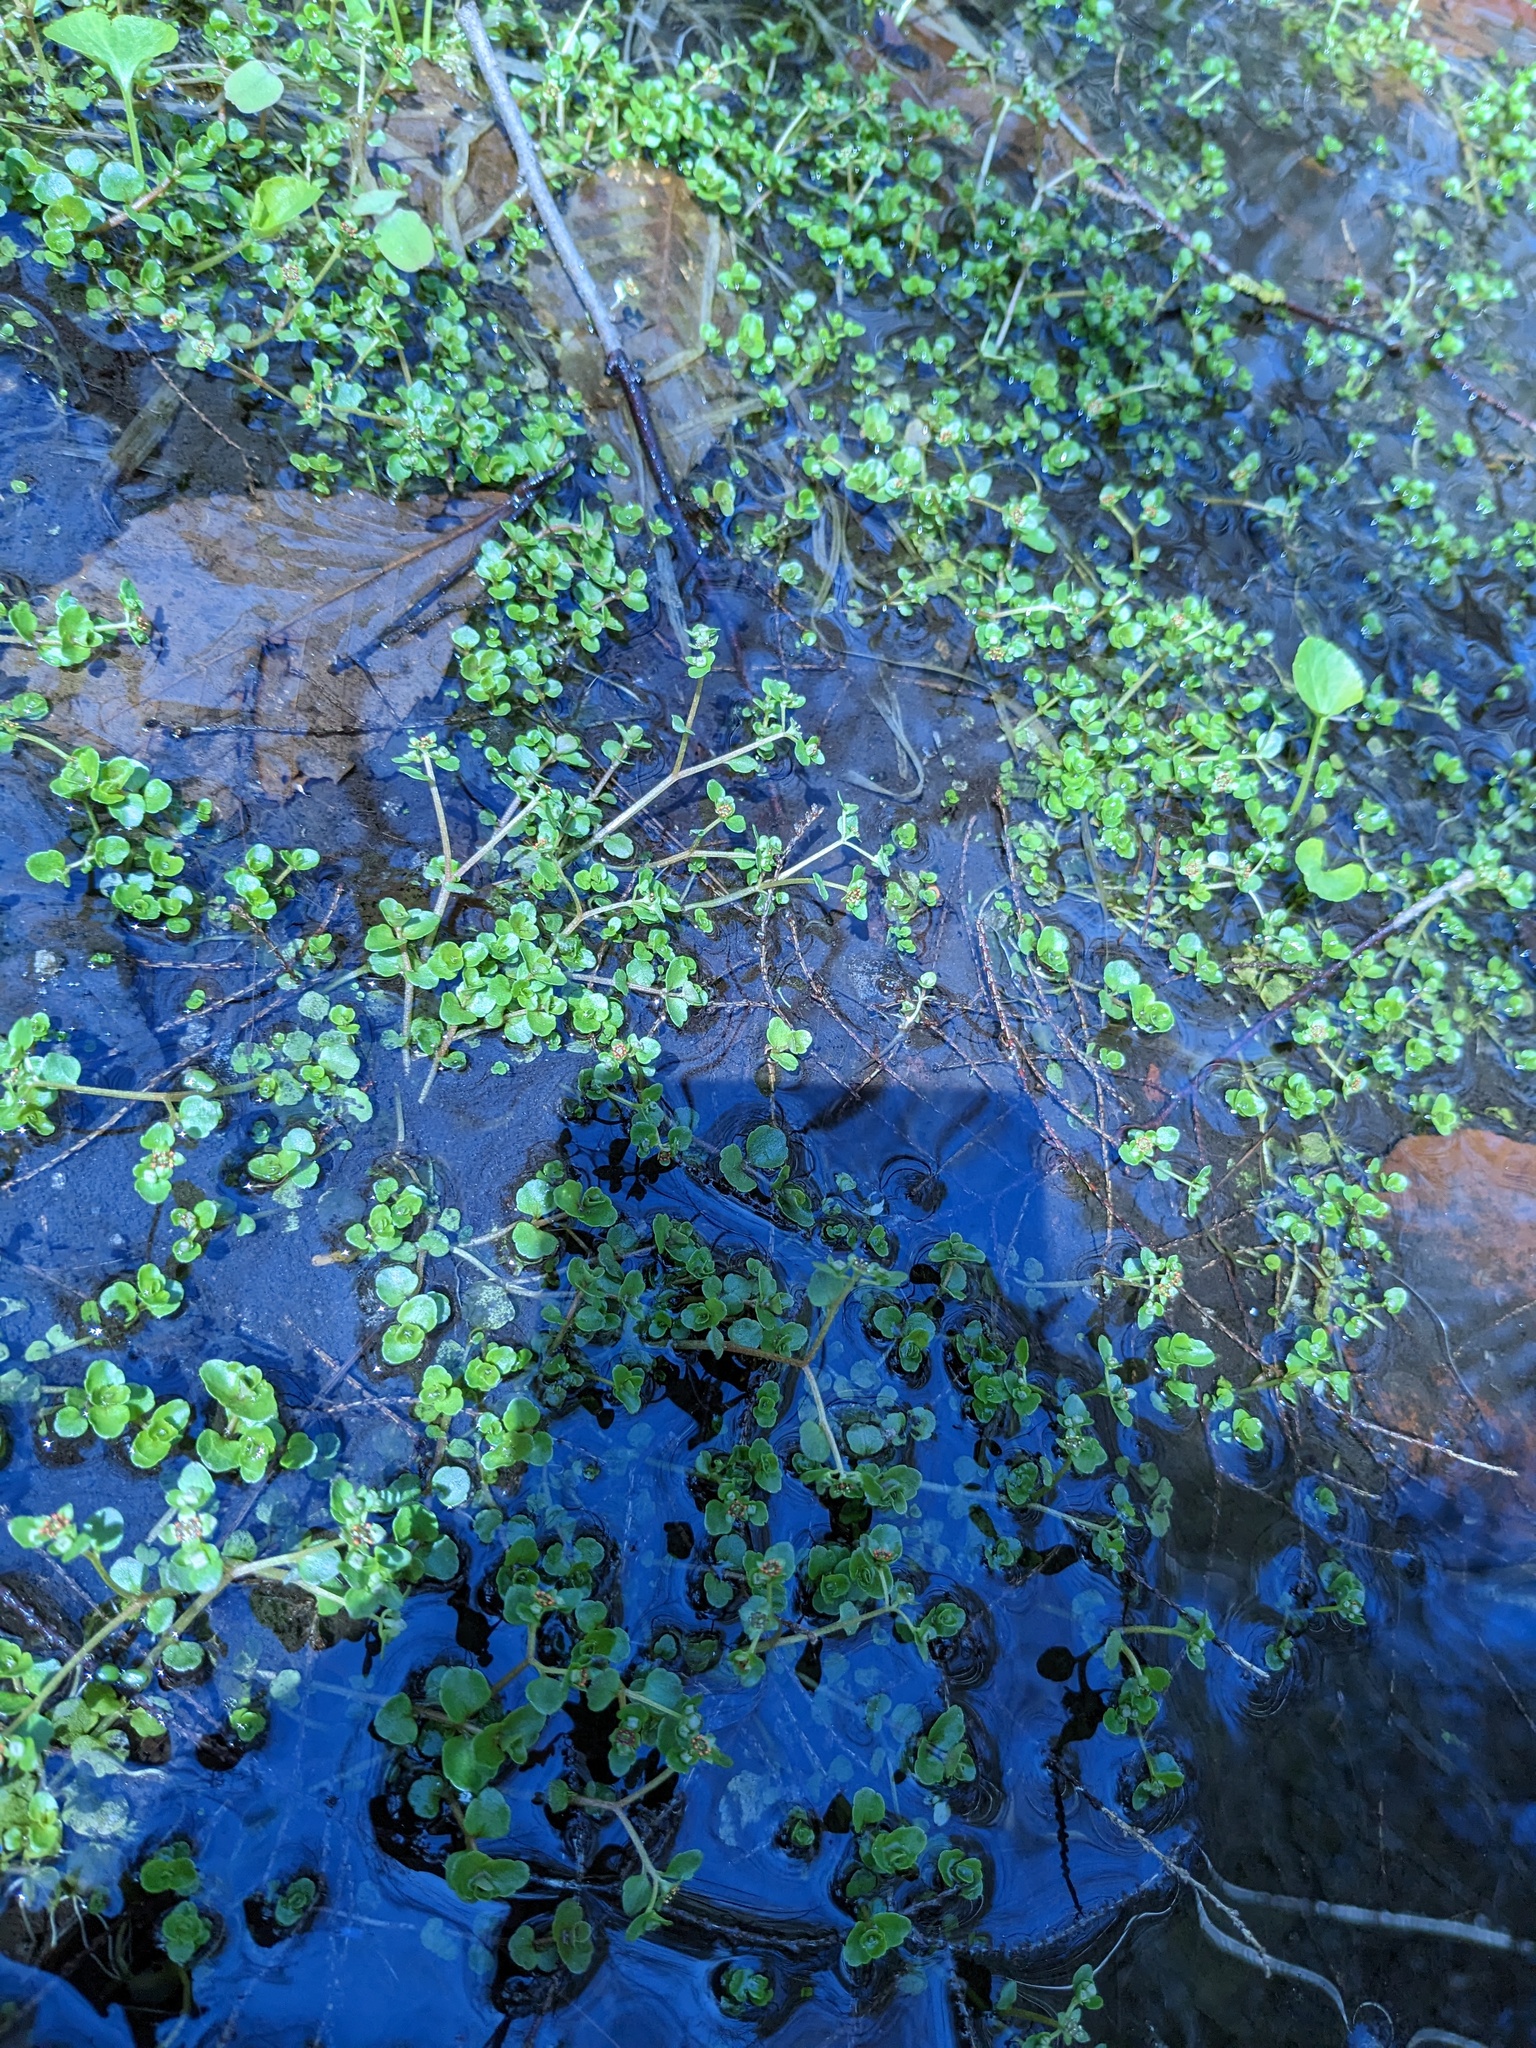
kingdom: Plantae
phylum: Tracheophyta
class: Magnoliopsida
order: Saxifragales
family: Saxifragaceae
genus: Chrysosplenium
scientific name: Chrysosplenium americanum
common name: American golden-saxifrage
